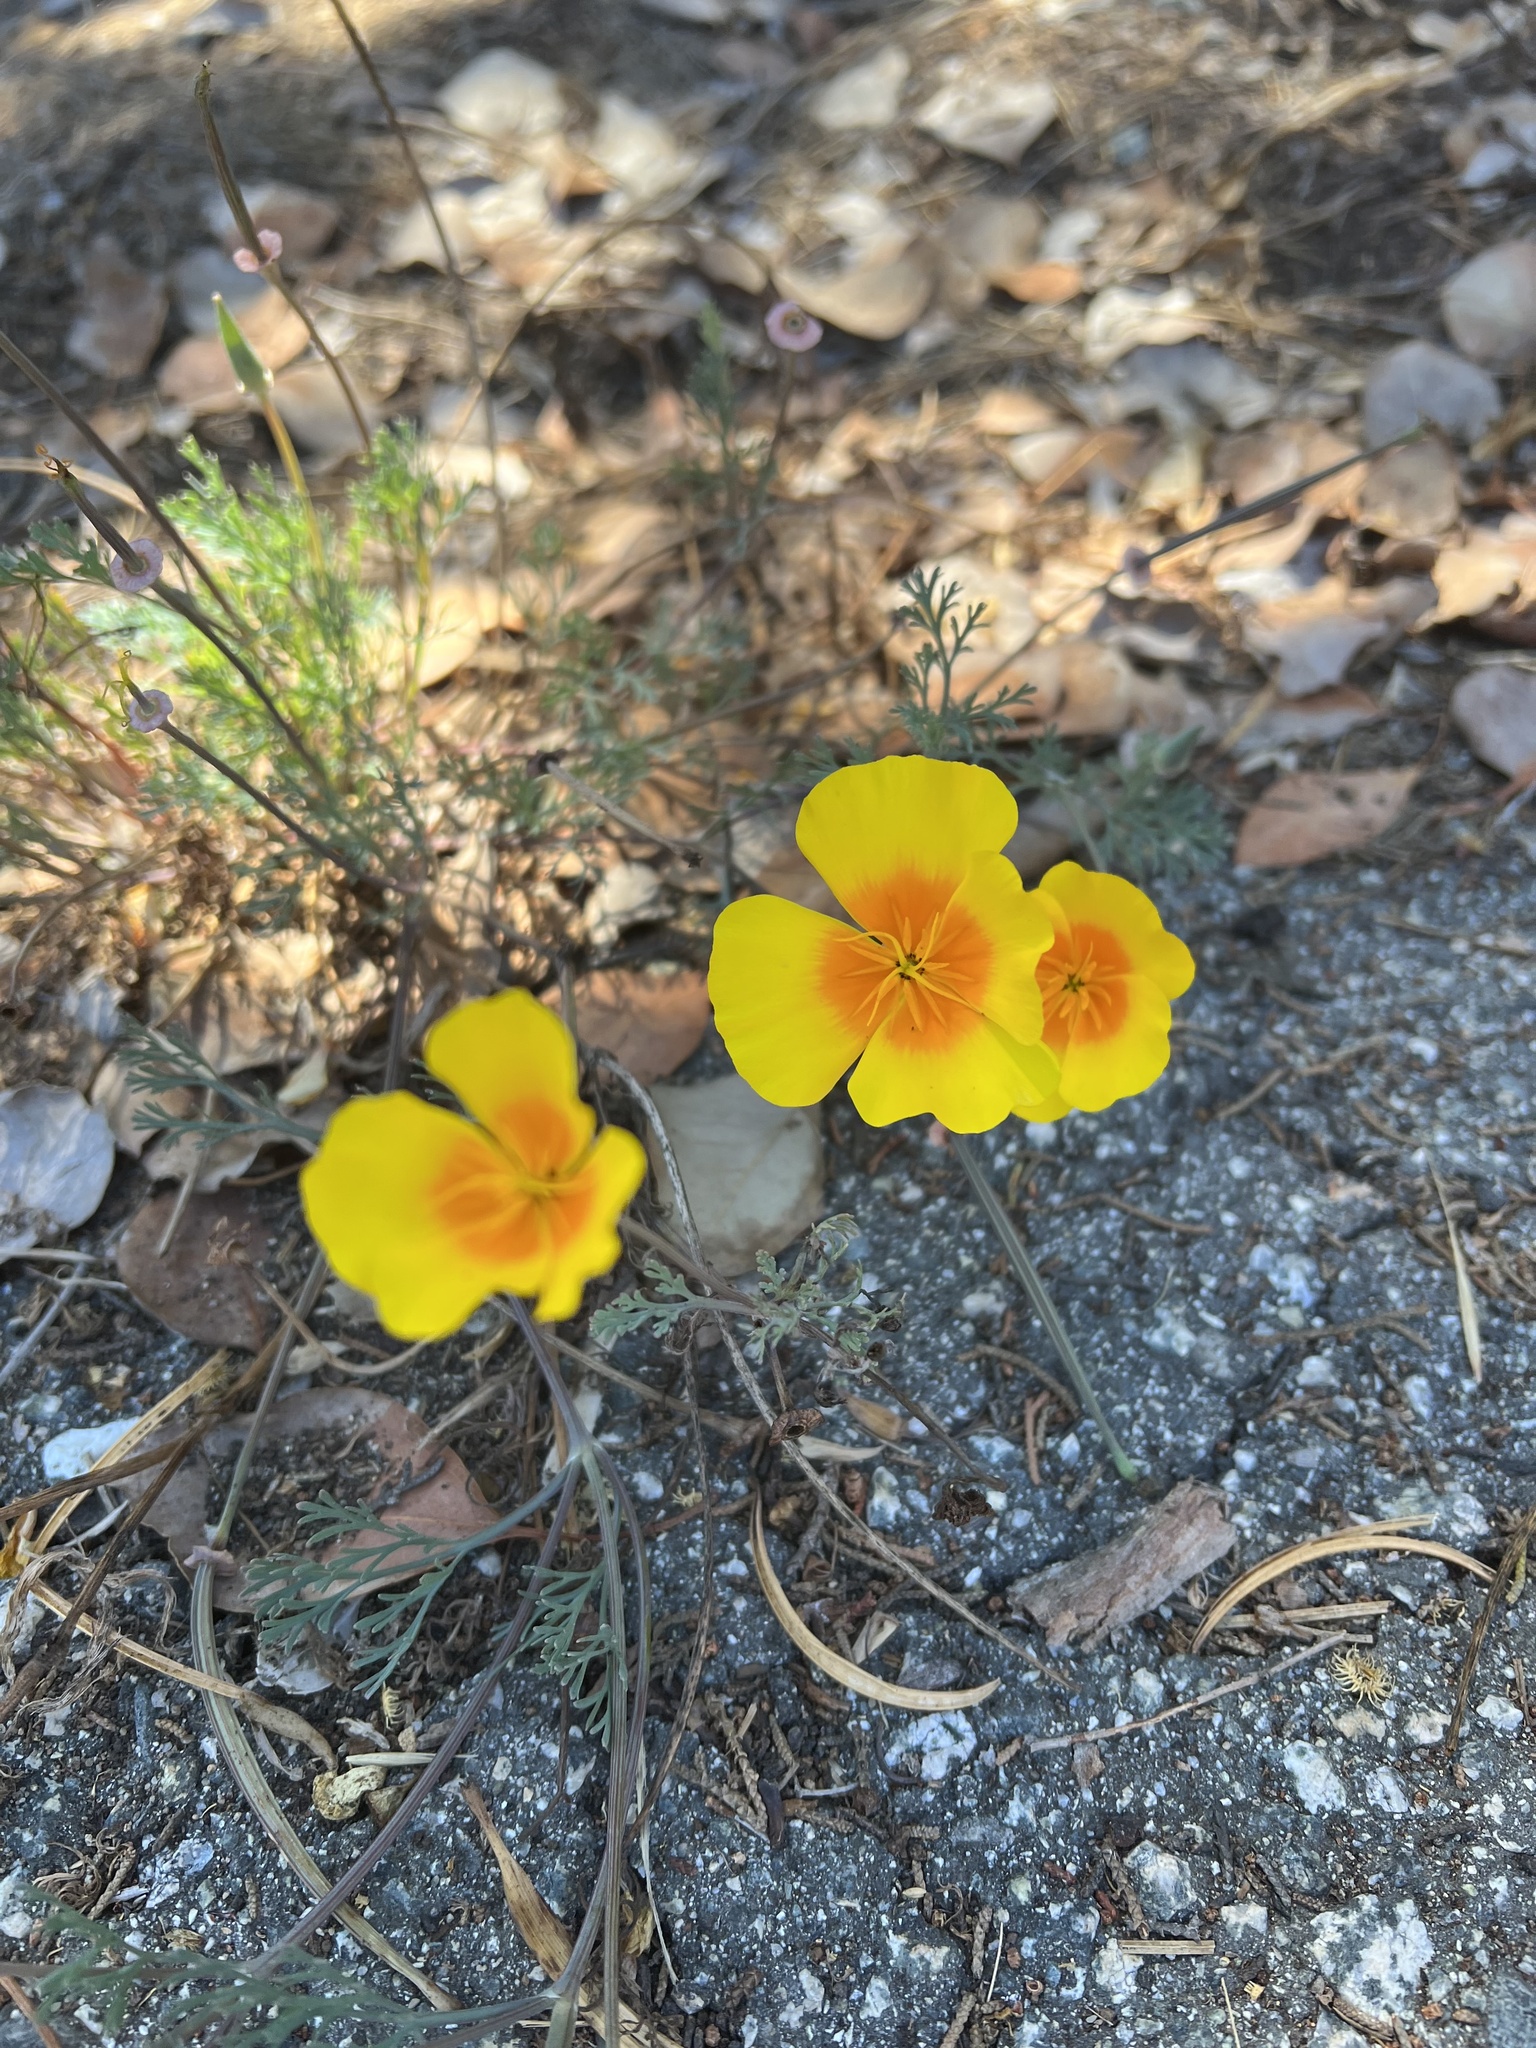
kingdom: Plantae
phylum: Tracheophyta
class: Magnoliopsida
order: Ranunculales
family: Papaveraceae
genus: Eschscholzia
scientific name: Eschscholzia californica
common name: California poppy
